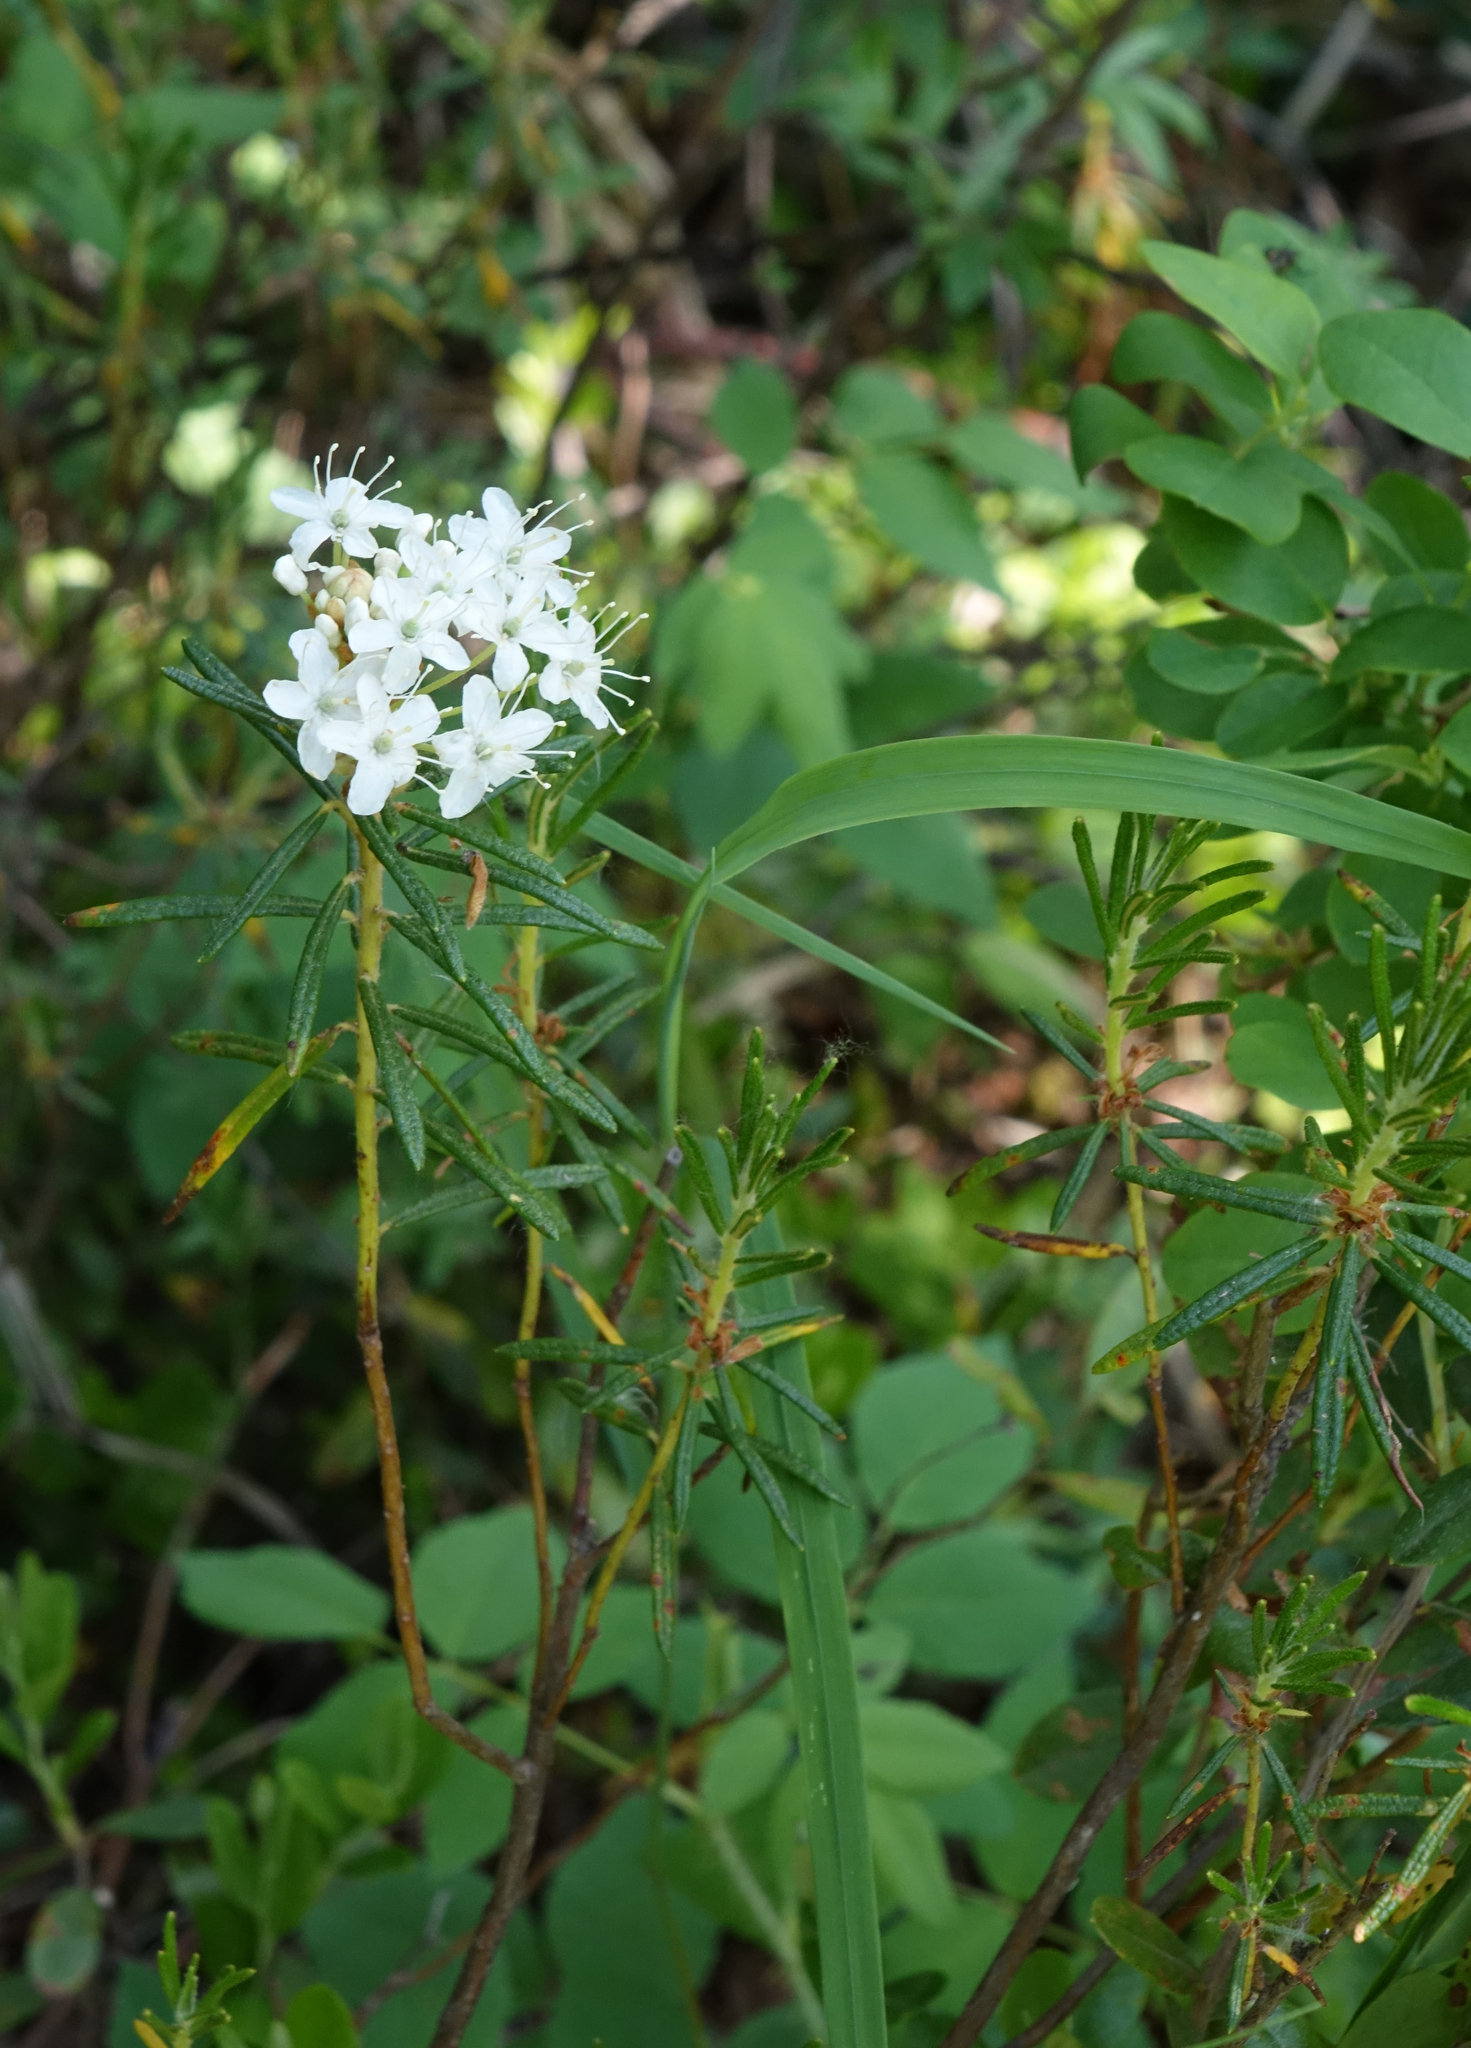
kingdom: Plantae
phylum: Tracheophyta
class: Magnoliopsida
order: Ericales
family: Ericaceae
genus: Rhododendron
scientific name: Rhododendron tomentosum
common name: Marsh labrador tea
